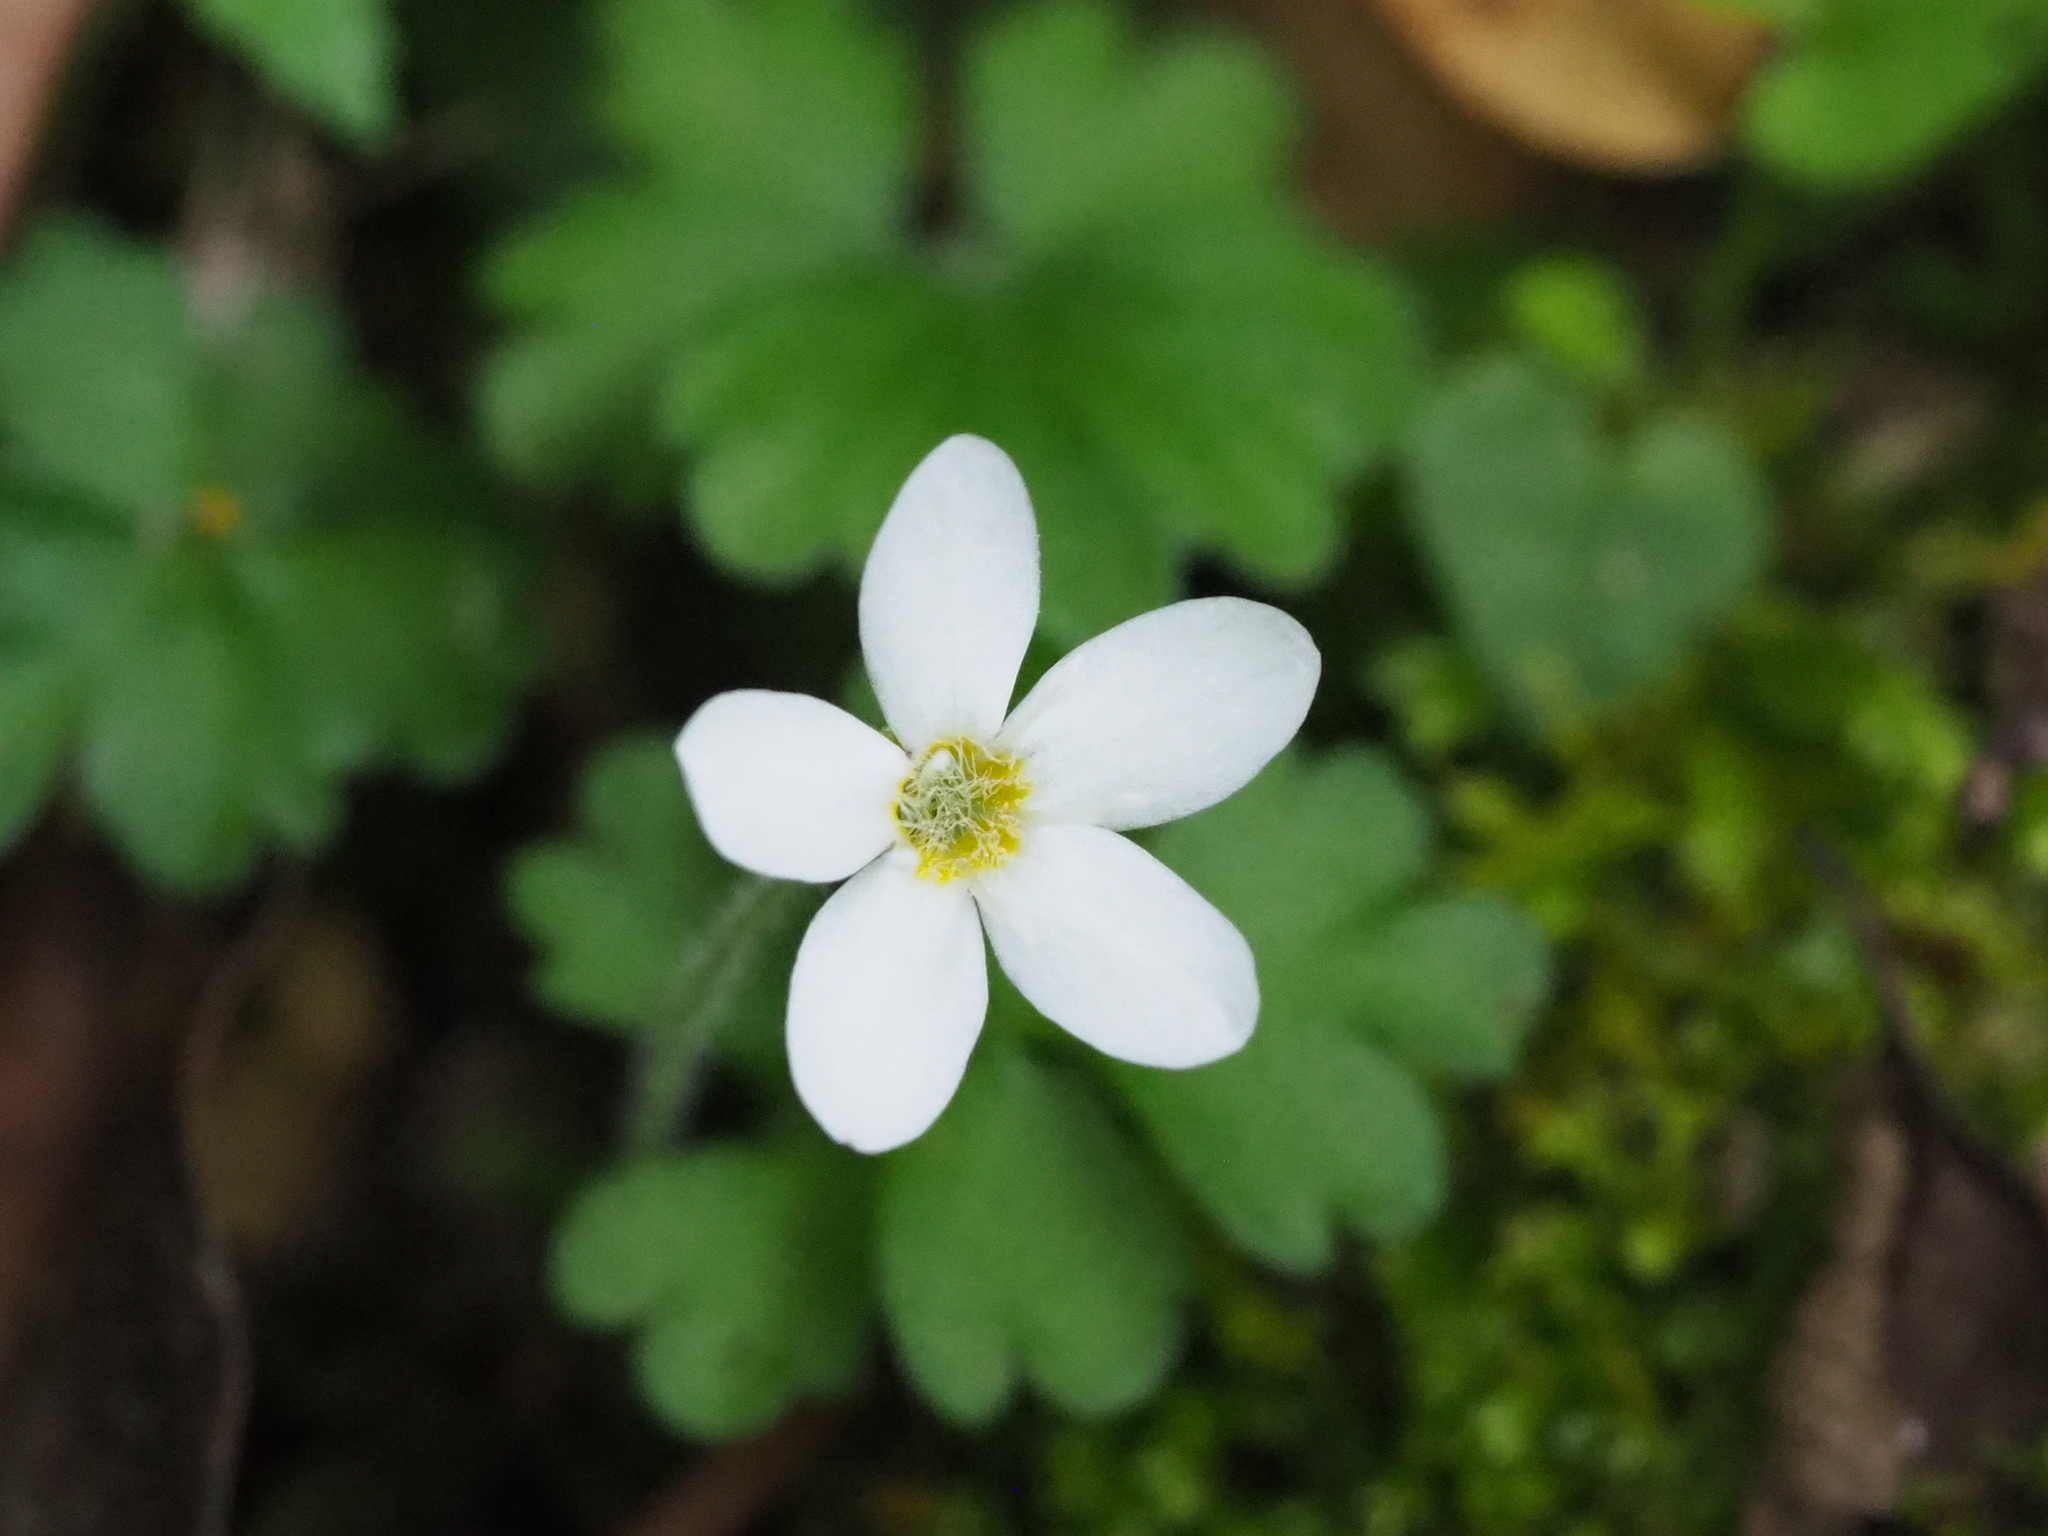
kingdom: Plantae
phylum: Tracheophyta
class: Magnoliopsida
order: Lamiales
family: Plantaginaceae
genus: Ellisiophyllum
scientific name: Ellisiophyllum pinnatum
